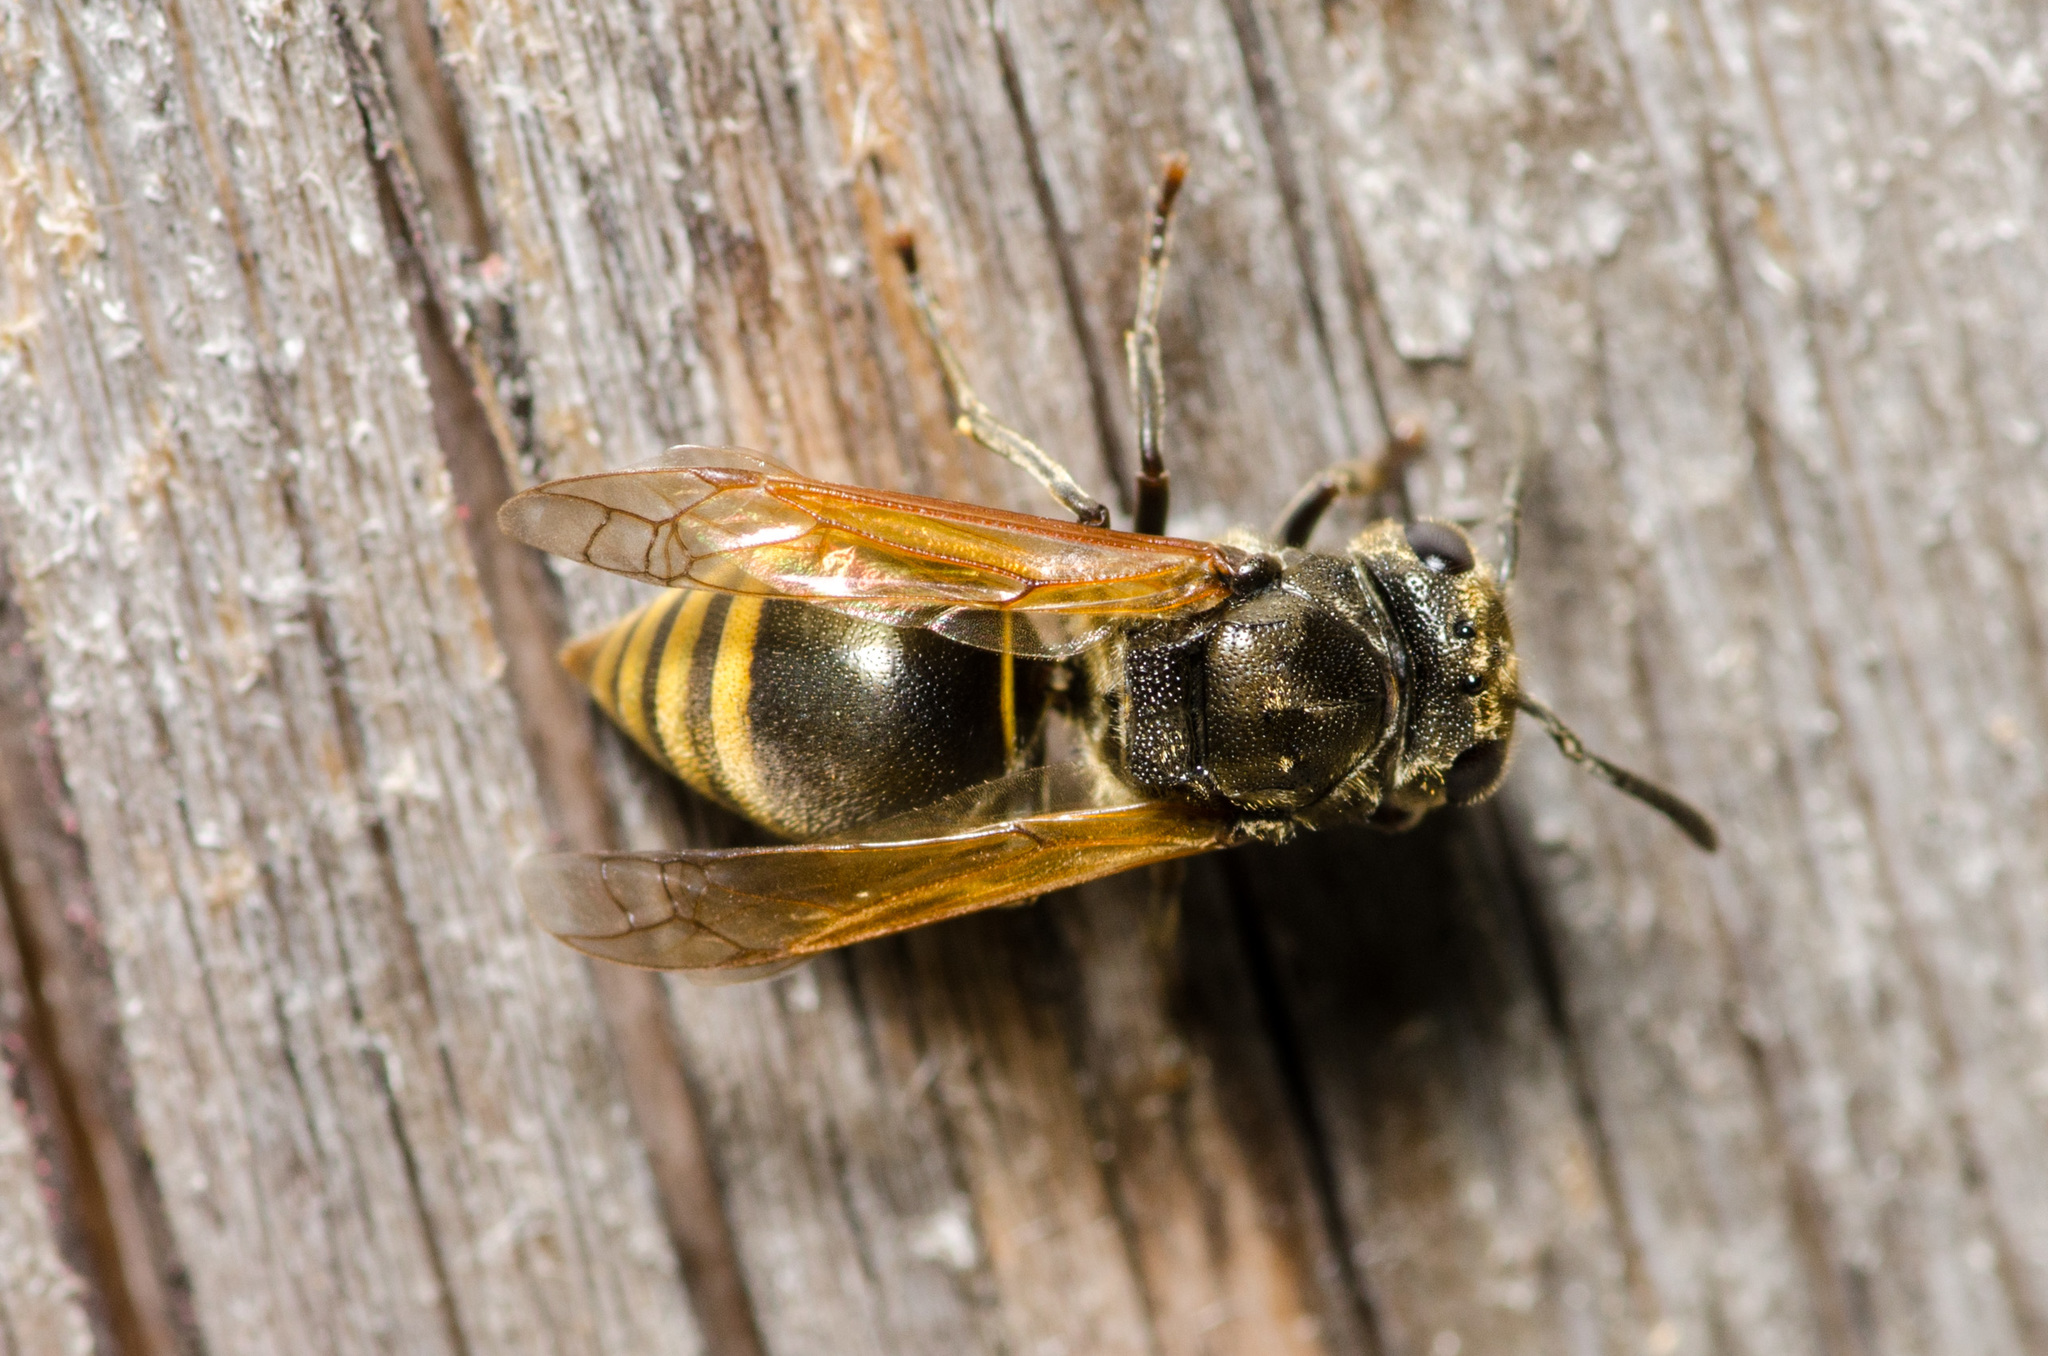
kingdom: Animalia
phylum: Arthropoda
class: Insecta
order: Hymenoptera
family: Vespidae
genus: Brachygastra
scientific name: Brachygastra mellifica
